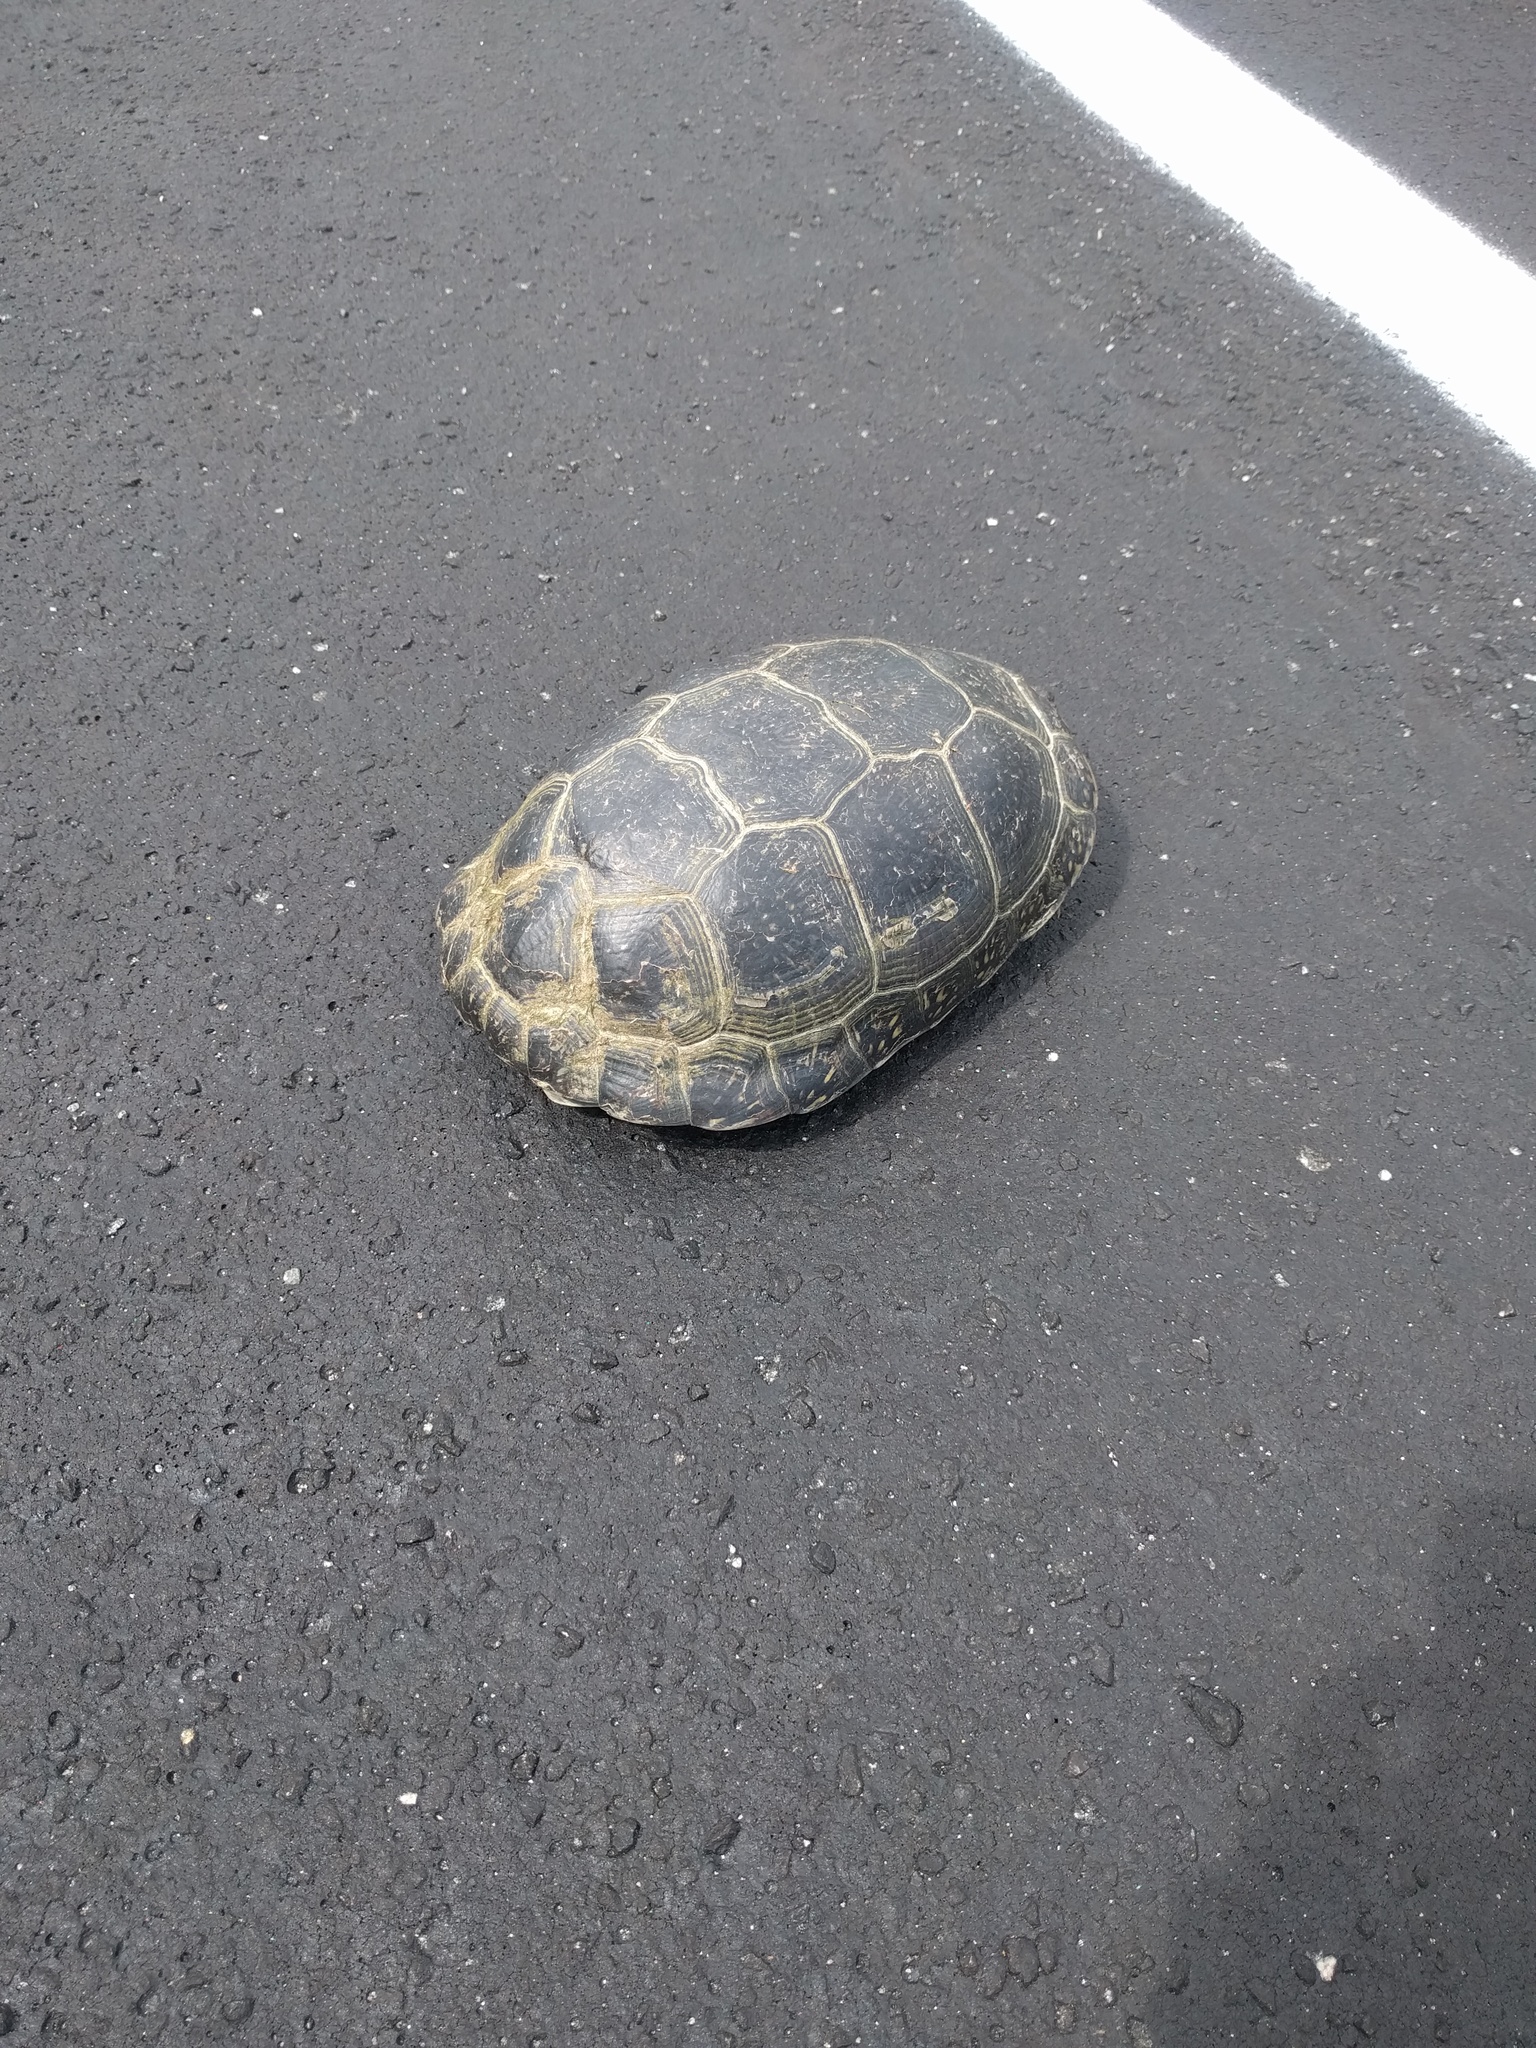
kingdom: Animalia
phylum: Chordata
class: Testudines
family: Emydidae
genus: Emys
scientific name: Emys blandingii
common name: Blanding's turtle
